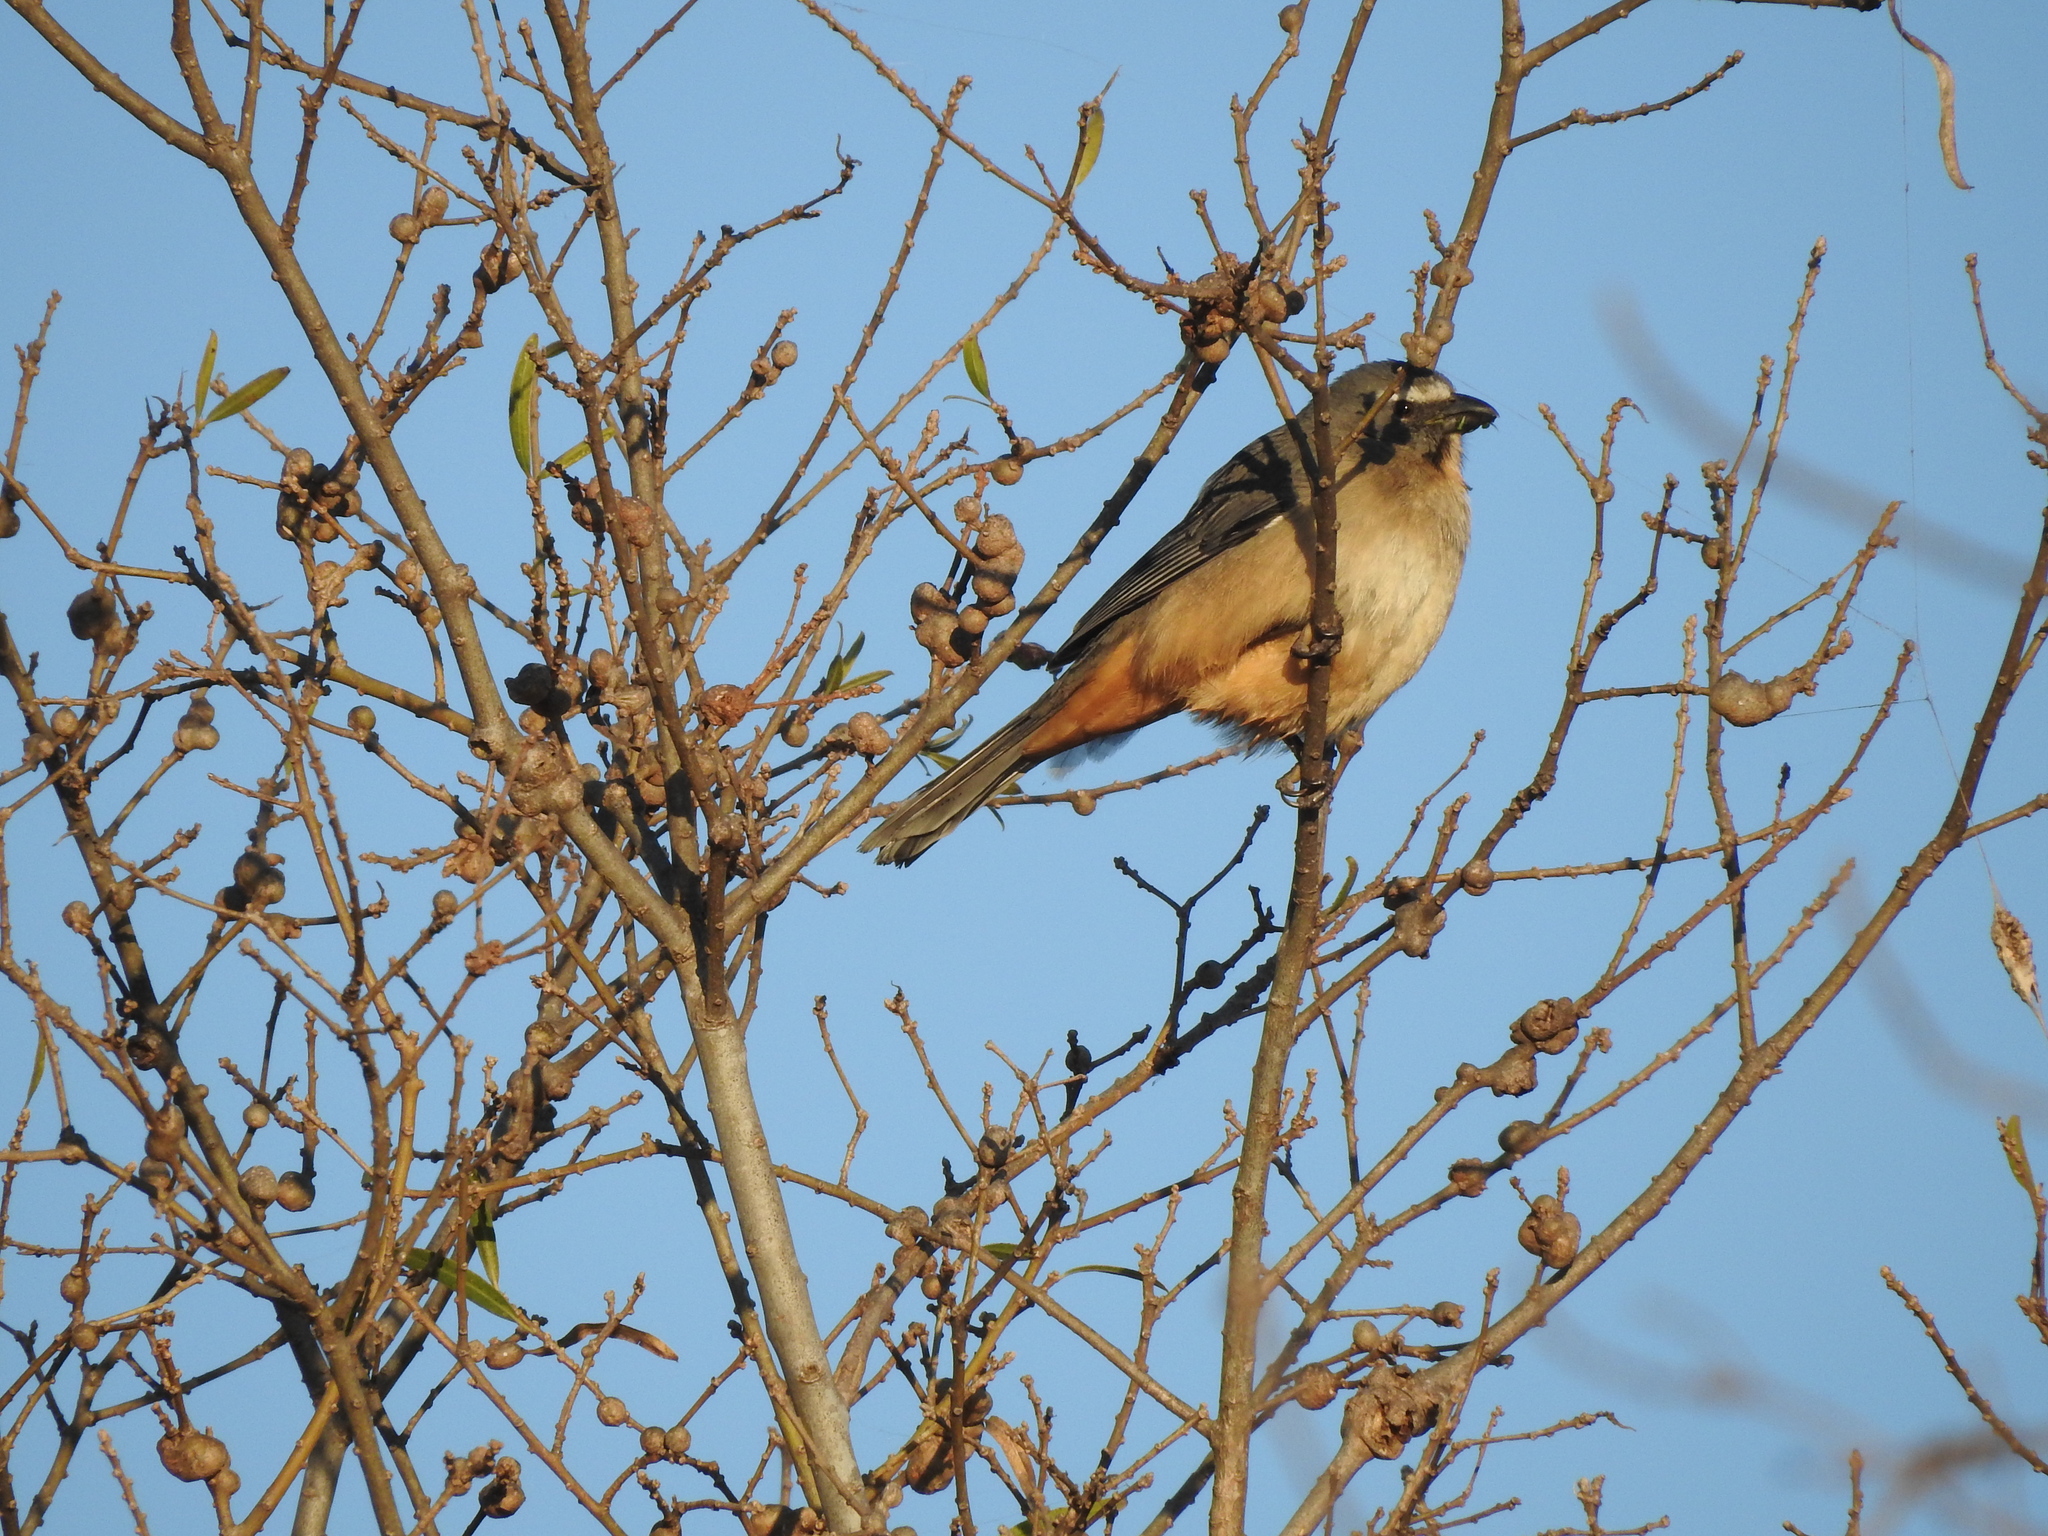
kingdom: Animalia
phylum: Chordata
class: Aves
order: Passeriformes
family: Thraupidae
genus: Saltator
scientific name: Saltator coerulescens
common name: Grayish saltator
